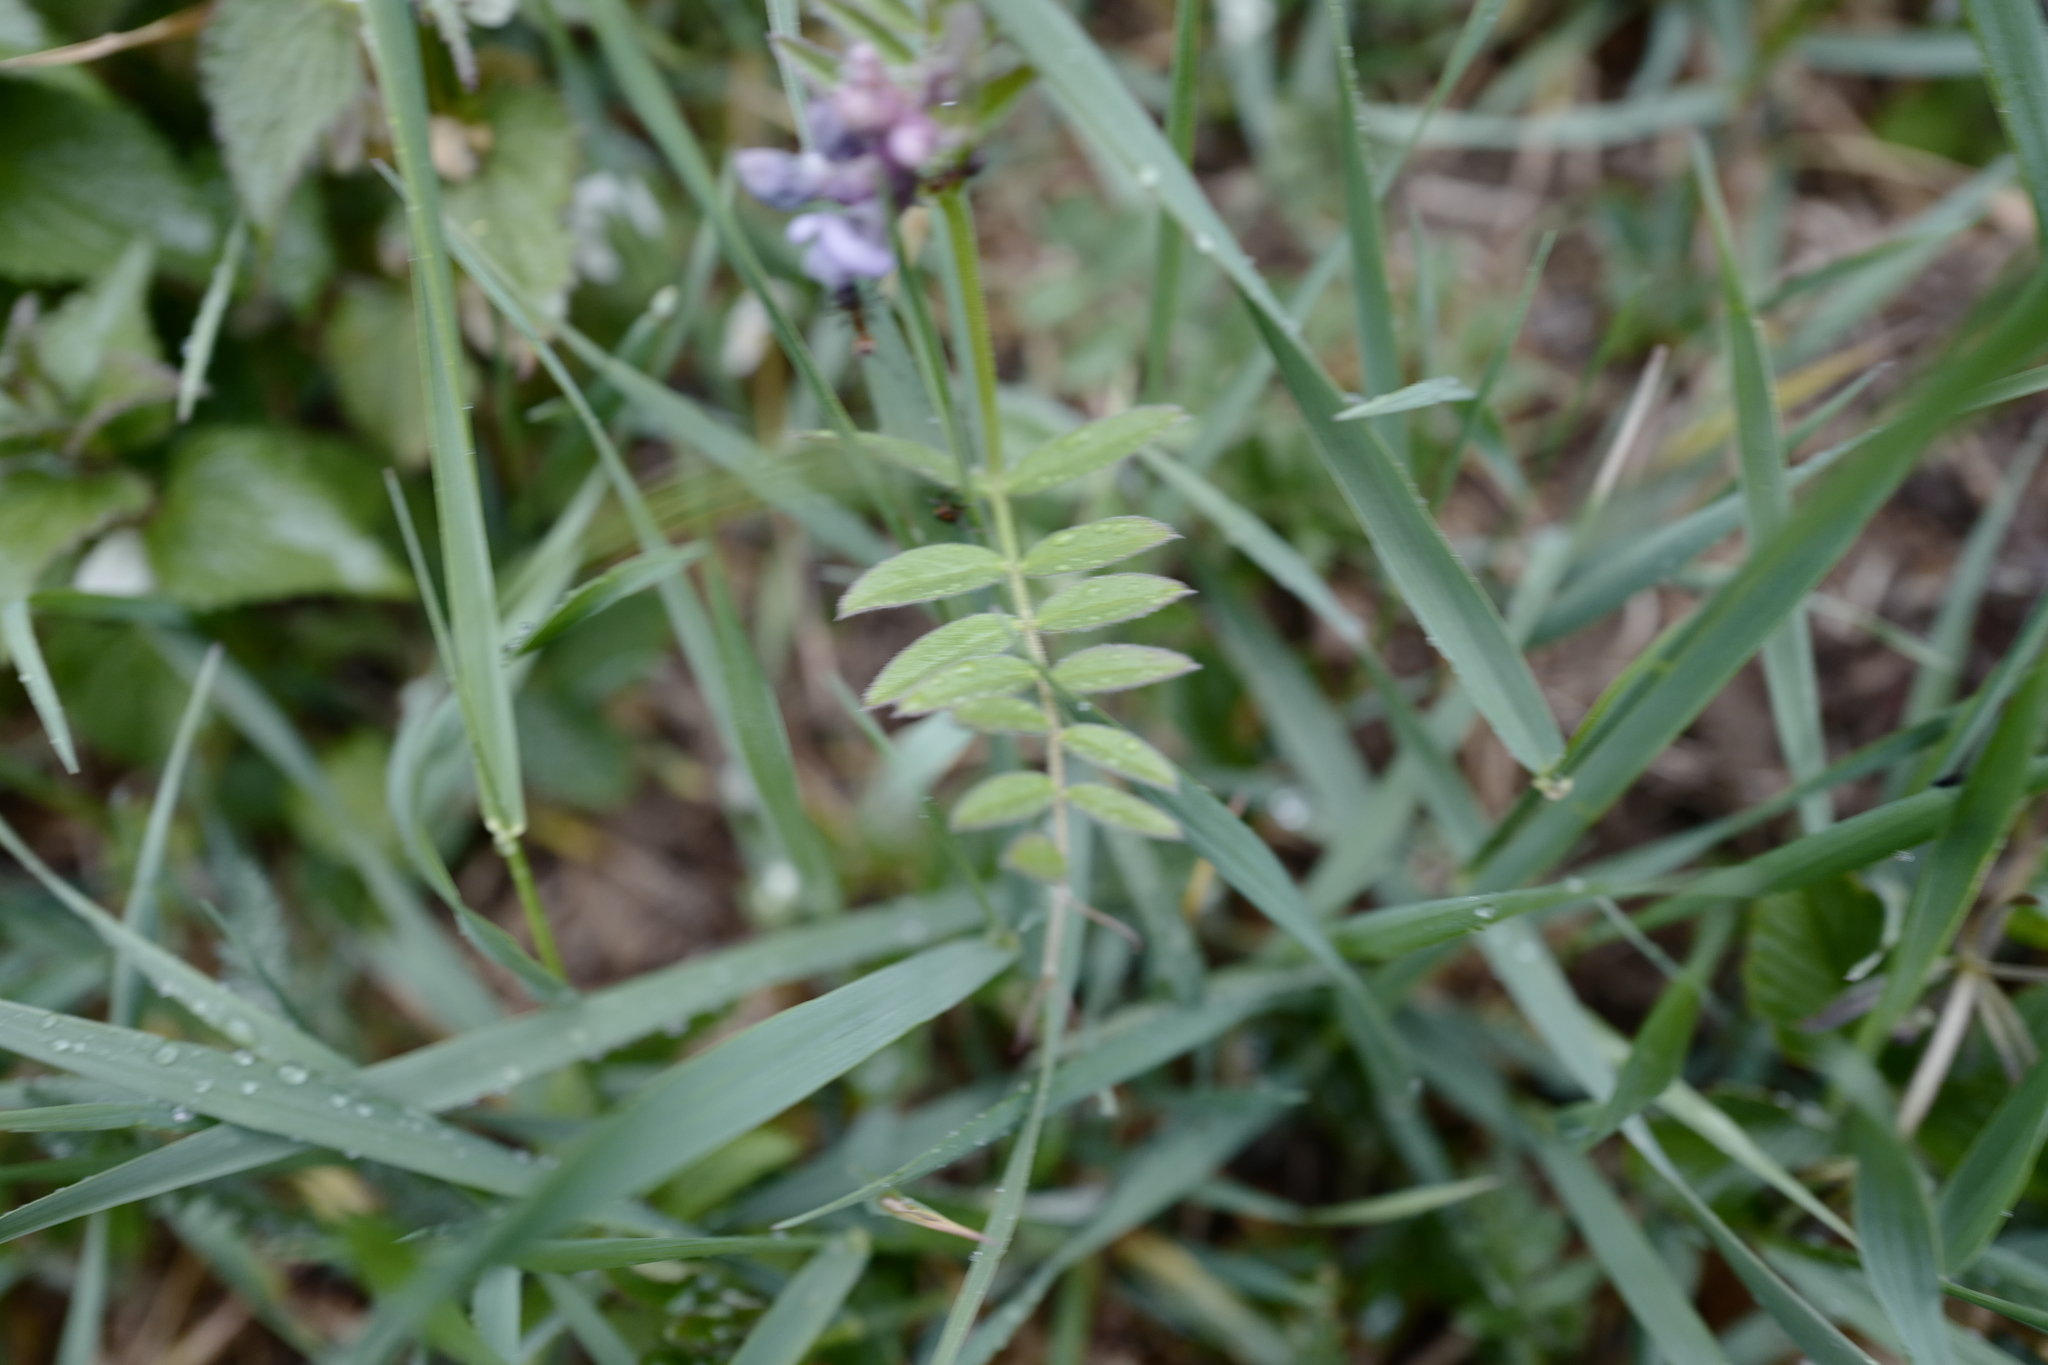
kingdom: Plantae
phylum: Tracheophyta
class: Magnoliopsida
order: Fabales
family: Fabaceae
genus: Vicia
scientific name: Vicia sepium
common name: Bush vetch
